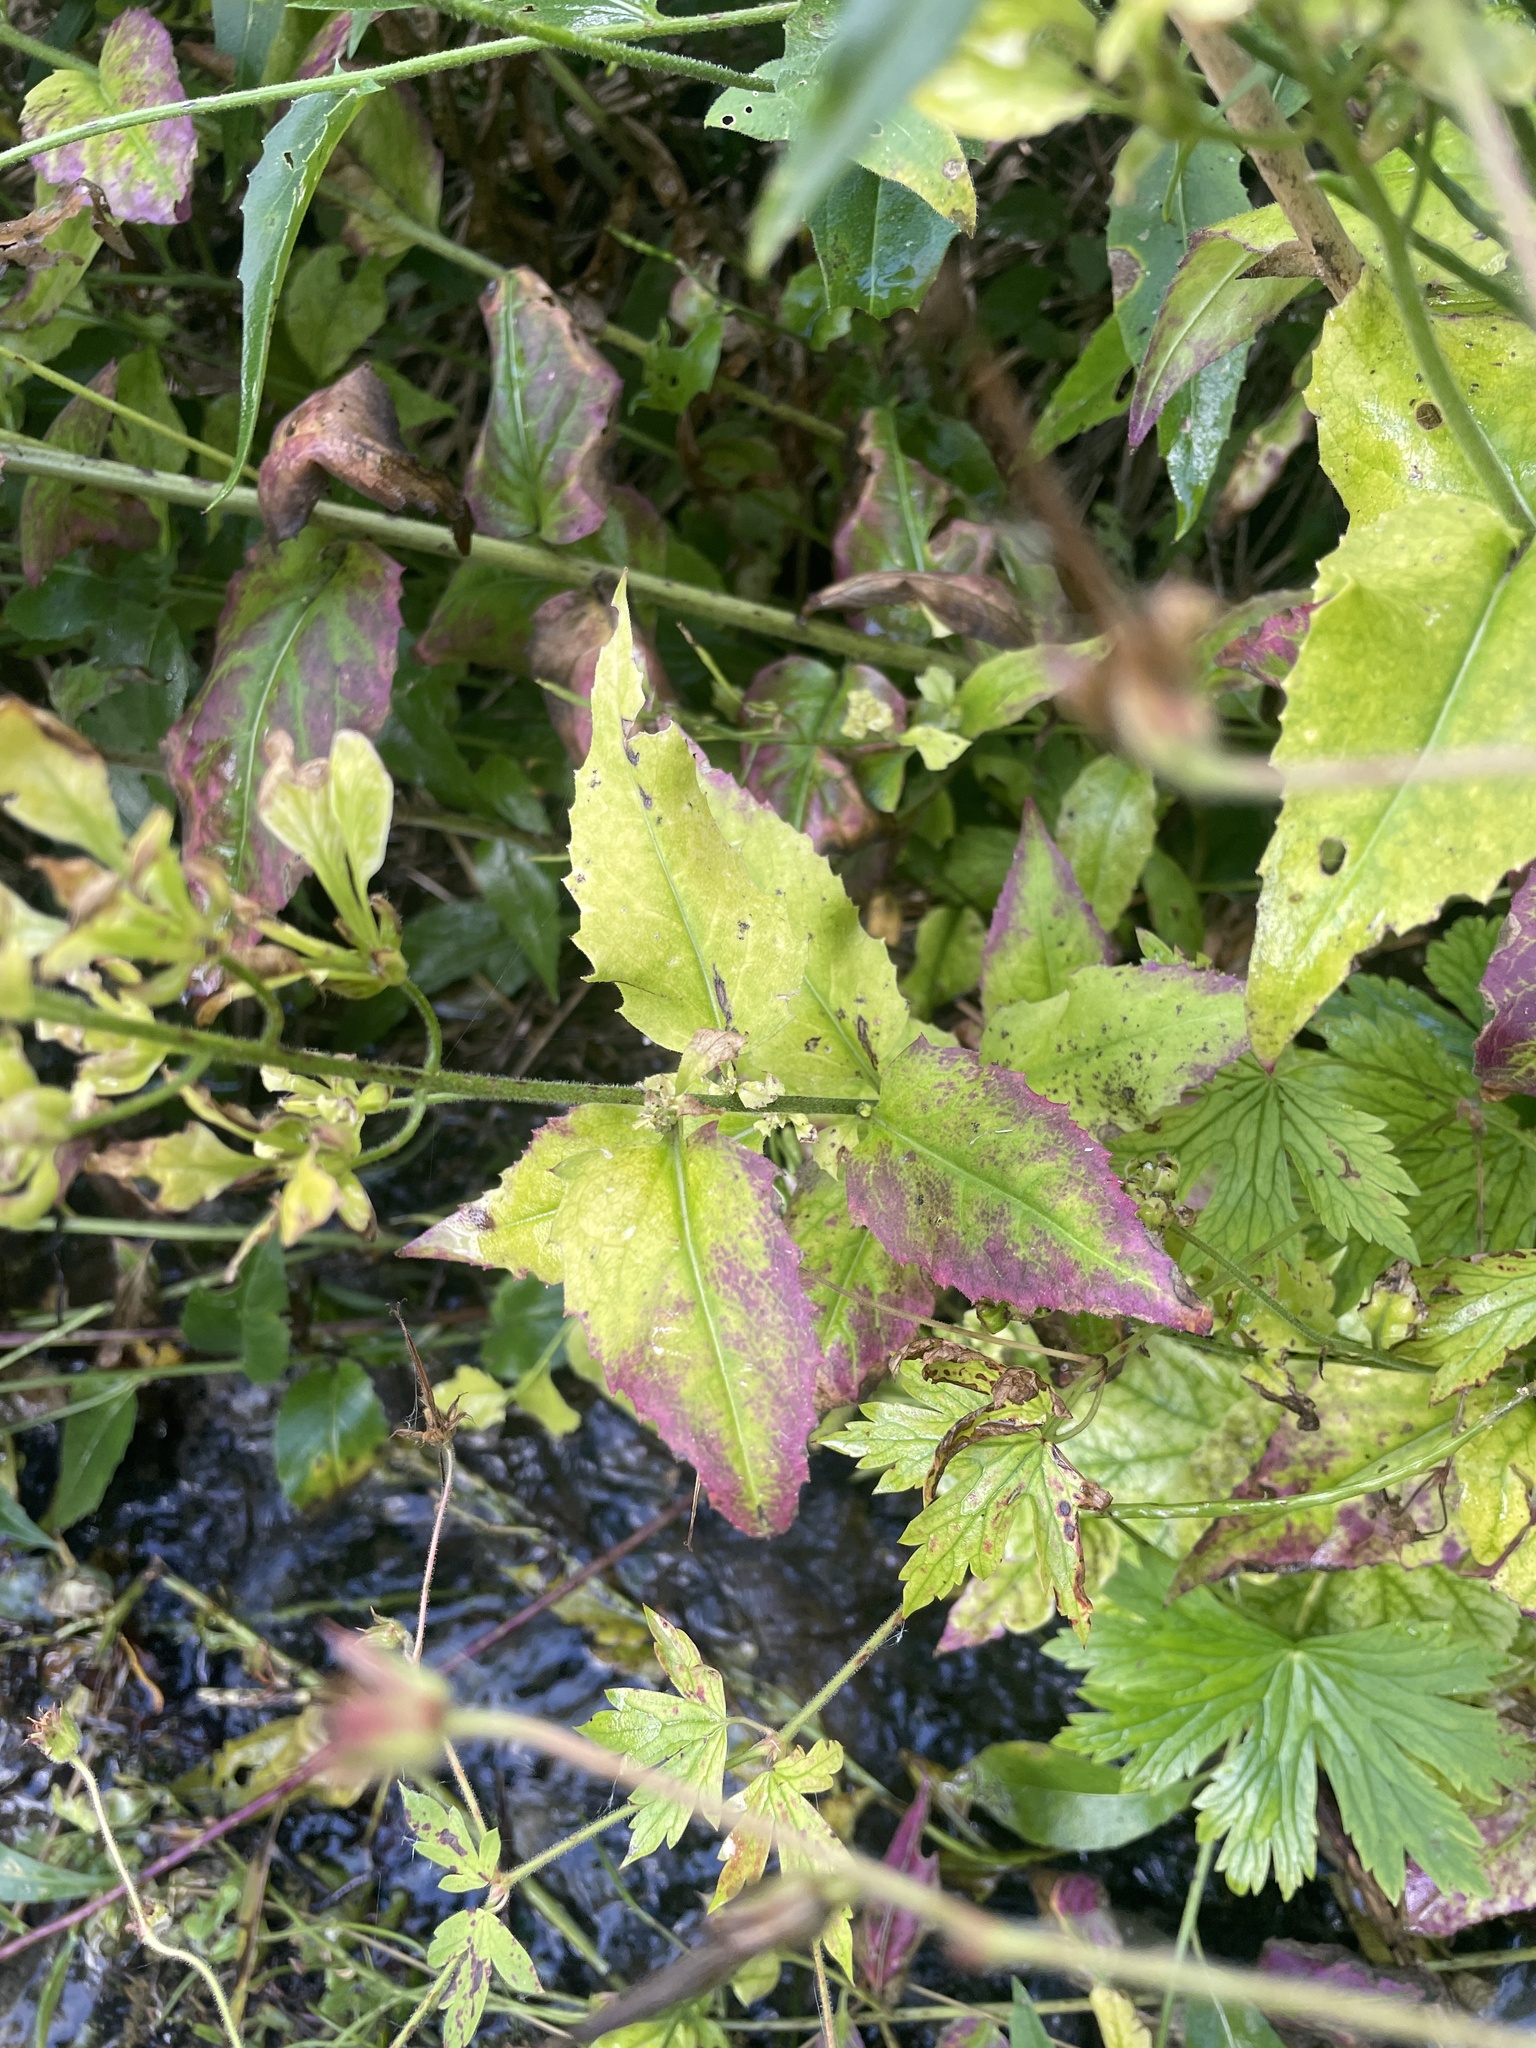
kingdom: Plantae
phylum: Tracheophyta
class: Magnoliopsida
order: Brassicales
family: Brassicaceae
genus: Hesperis
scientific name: Hesperis matronalis
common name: Dame's-violet
